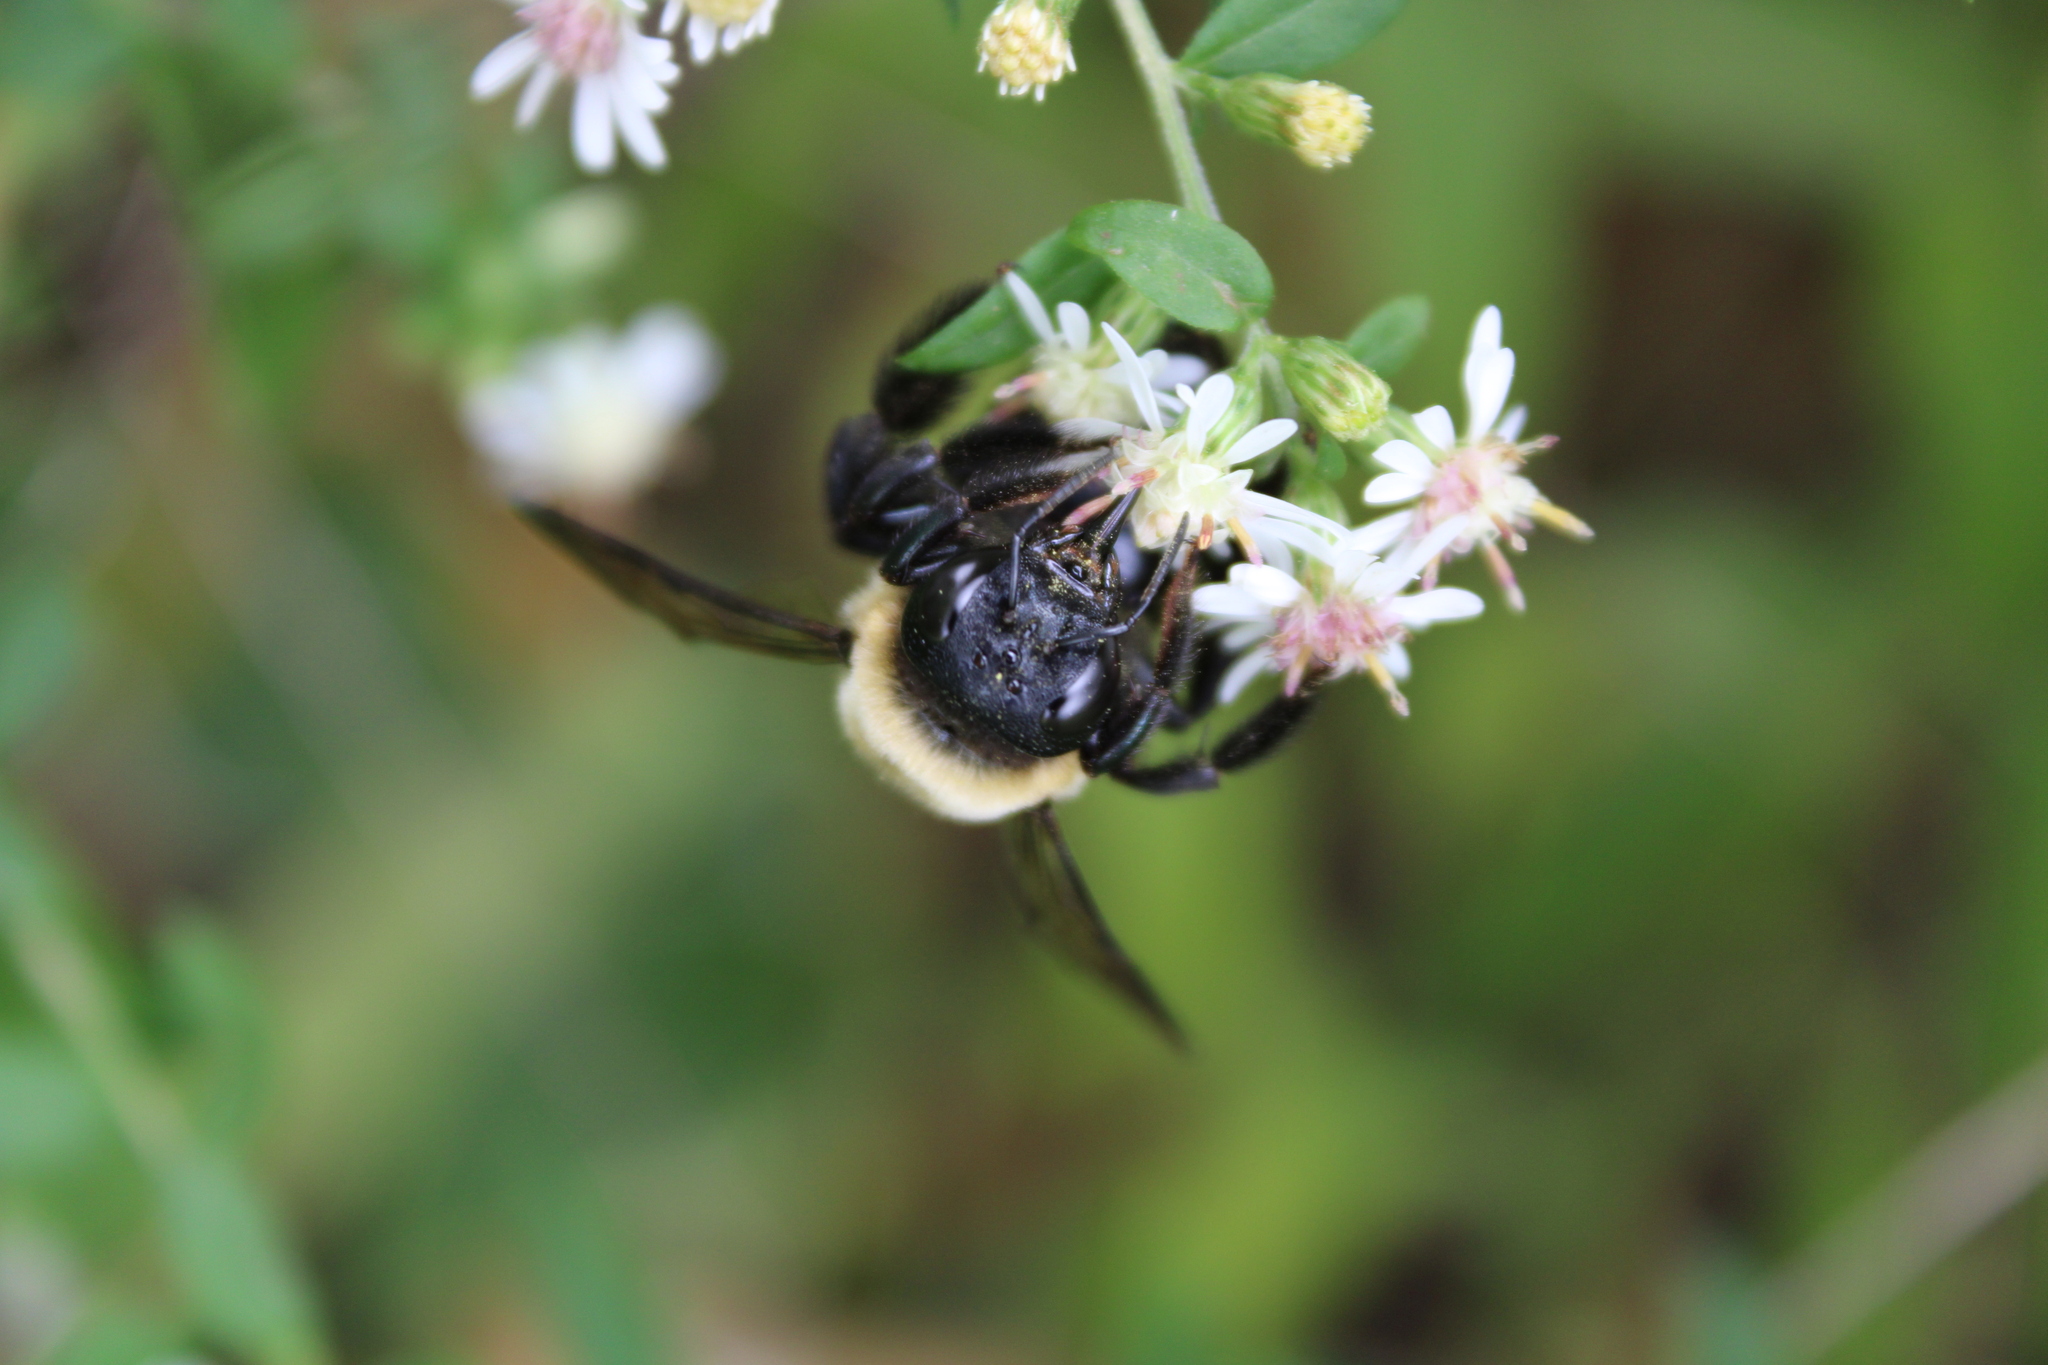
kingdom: Animalia
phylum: Arthropoda
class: Insecta
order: Hymenoptera
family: Apidae
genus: Xylocopa
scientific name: Xylocopa virginica
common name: Carpenter bee
